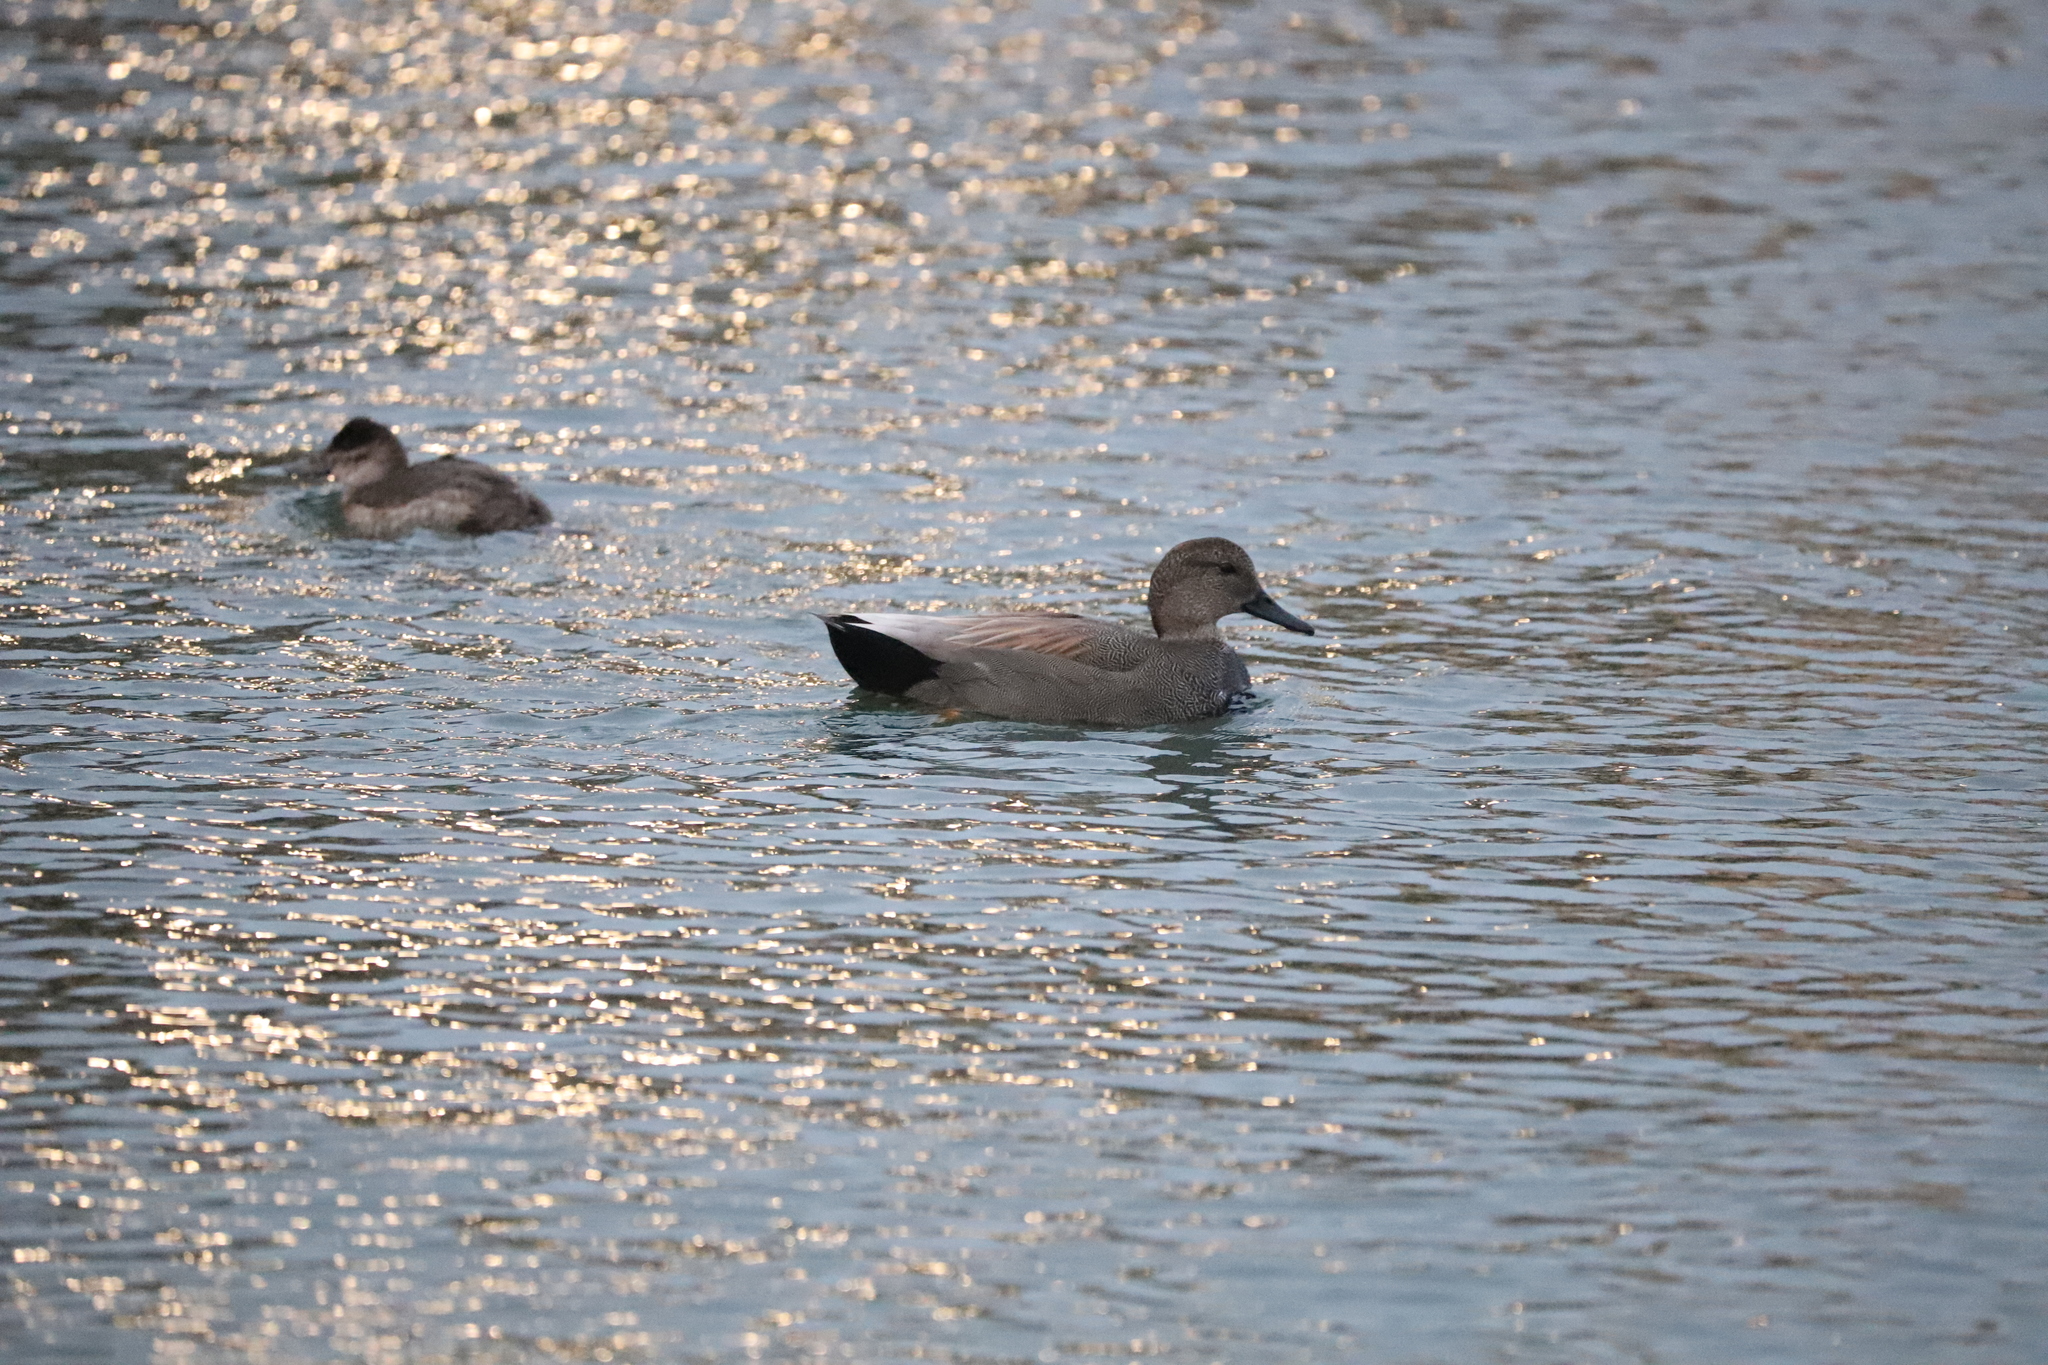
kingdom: Animalia
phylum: Chordata
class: Aves
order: Anseriformes
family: Anatidae
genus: Mareca
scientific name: Mareca strepera
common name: Gadwall
